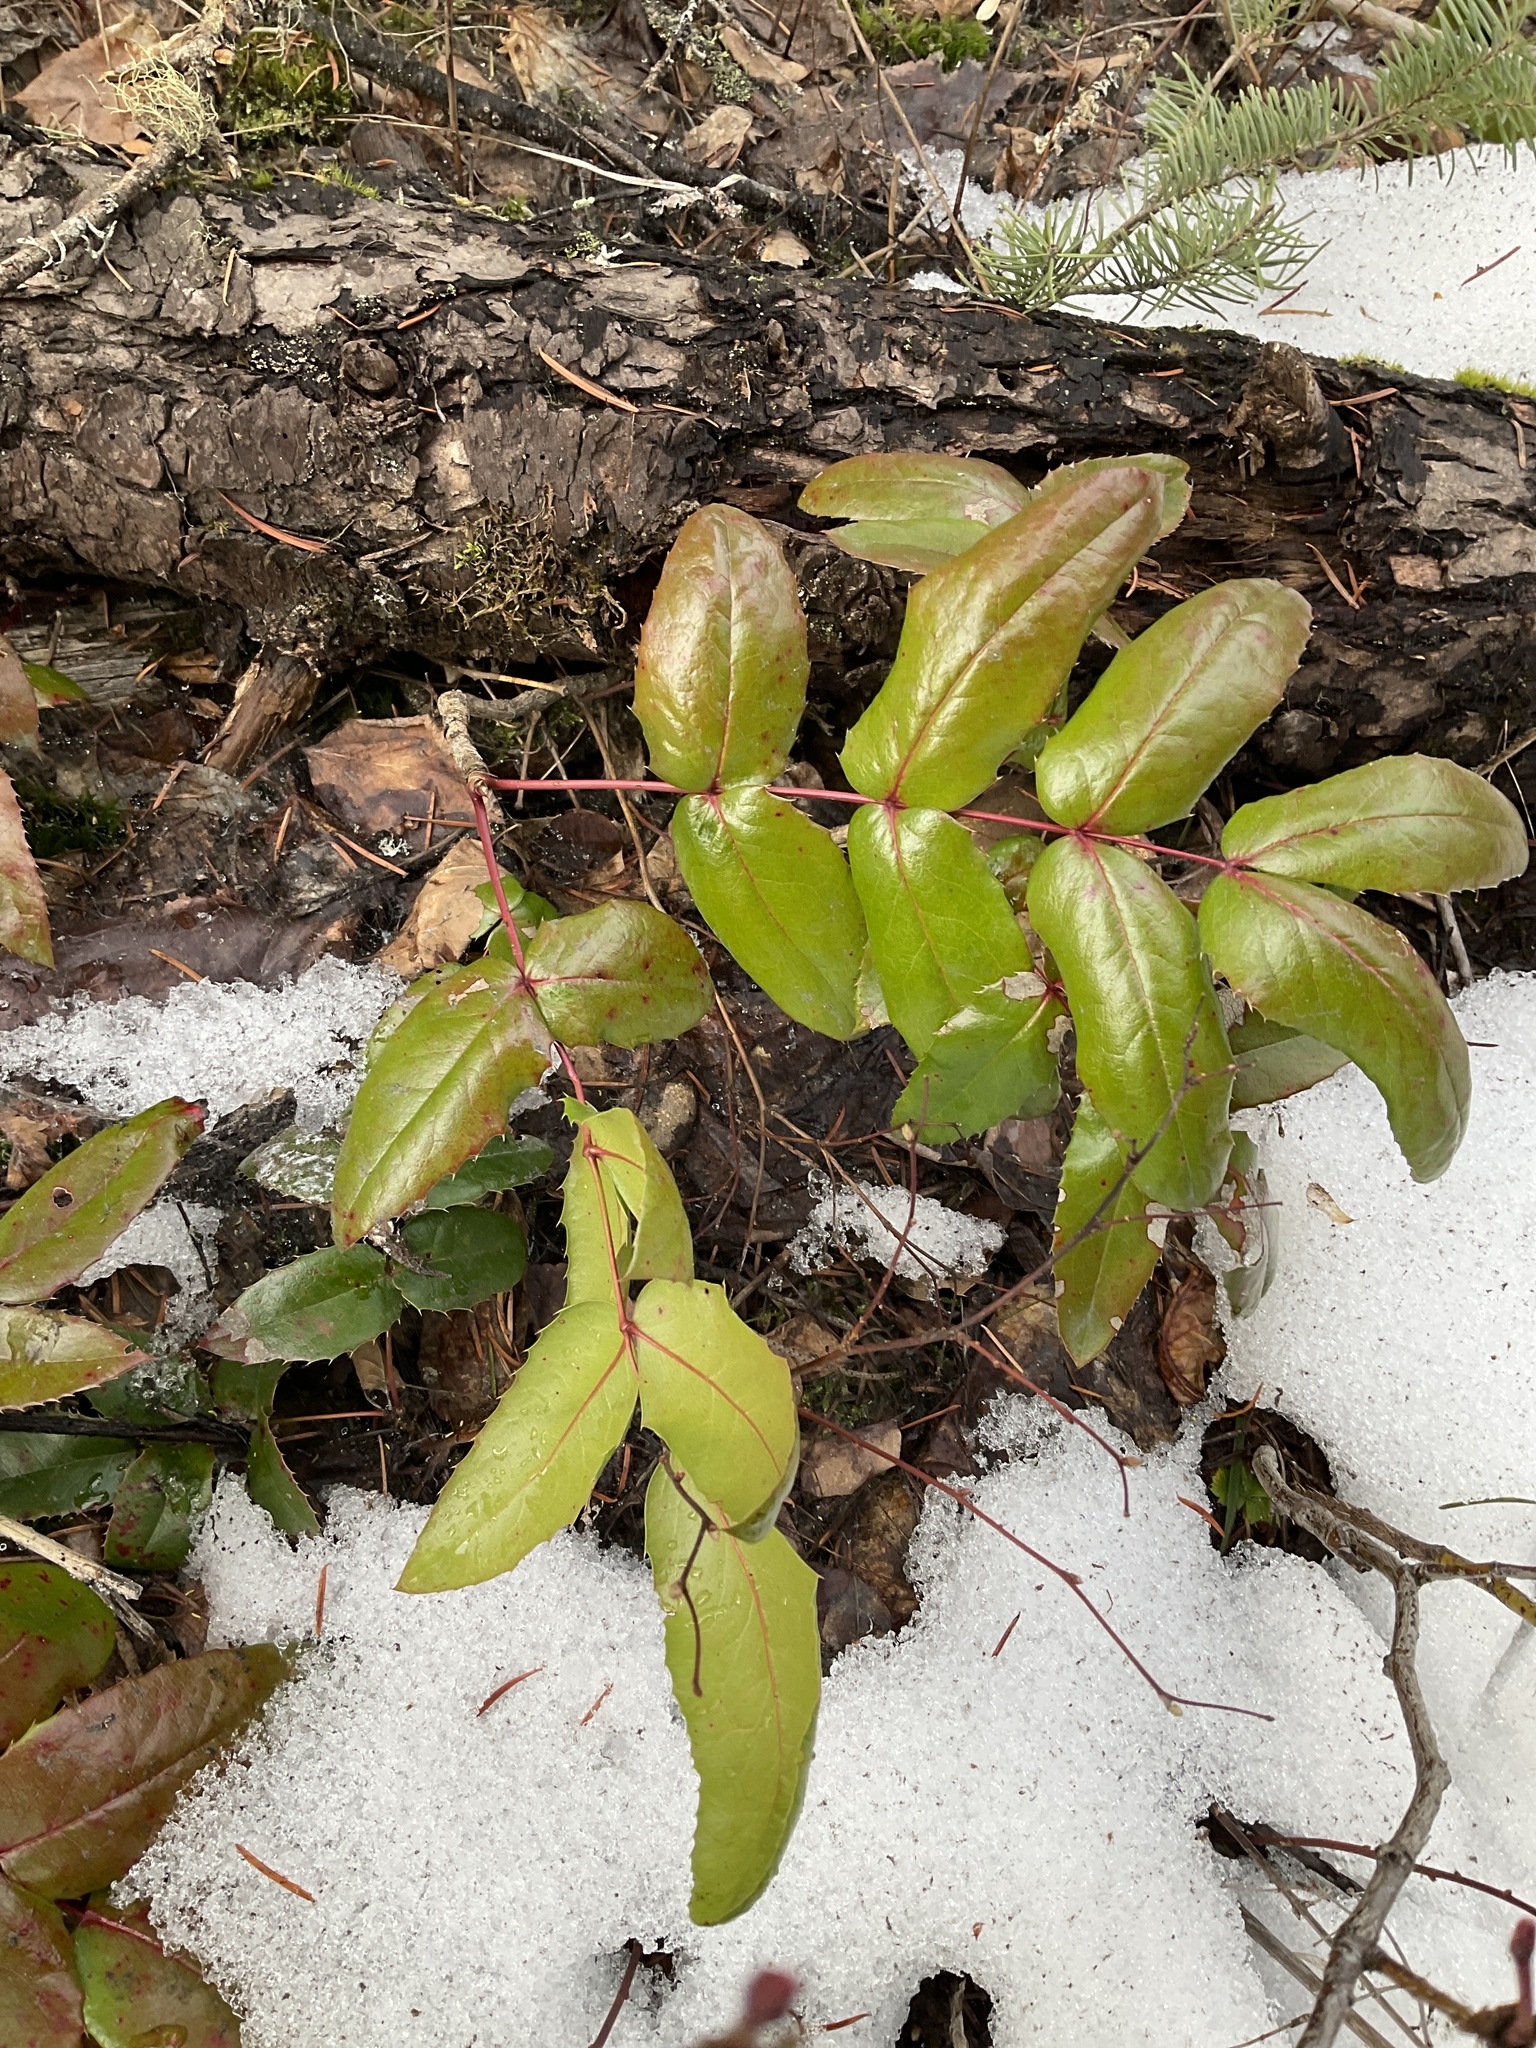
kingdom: Plantae
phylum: Tracheophyta
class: Magnoliopsida
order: Ranunculales
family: Berberidaceae
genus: Mahonia
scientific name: Mahonia aquifolium
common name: Oregon-grape
